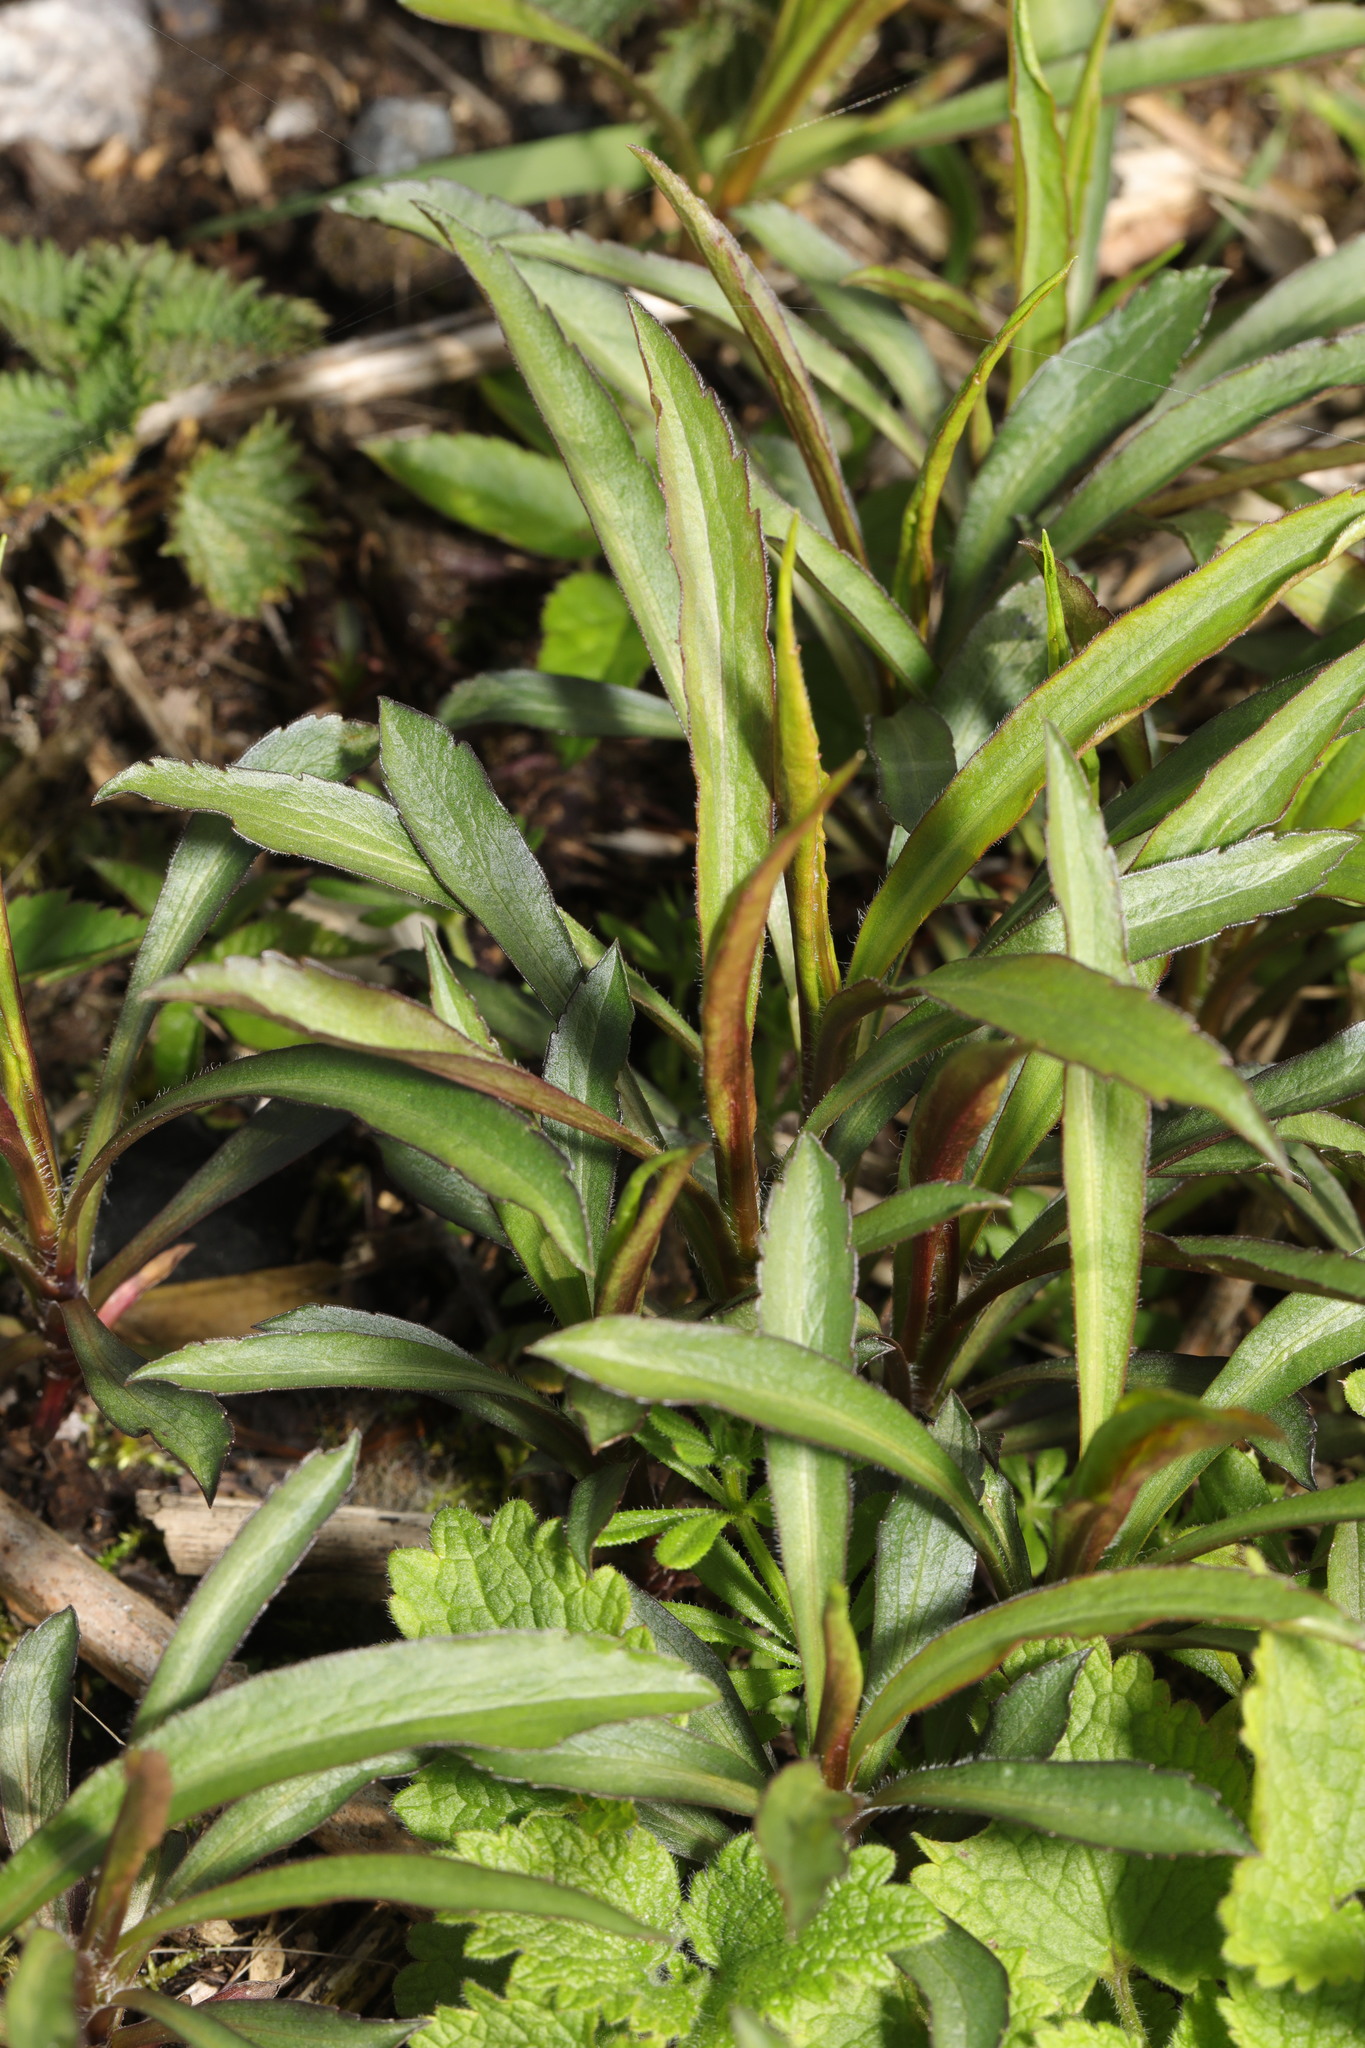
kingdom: Plantae
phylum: Tracheophyta
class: Magnoliopsida
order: Asterales
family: Asteraceae
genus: Symphyotrichum
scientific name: Symphyotrichum novi-belgii
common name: Michaelmas daisy
